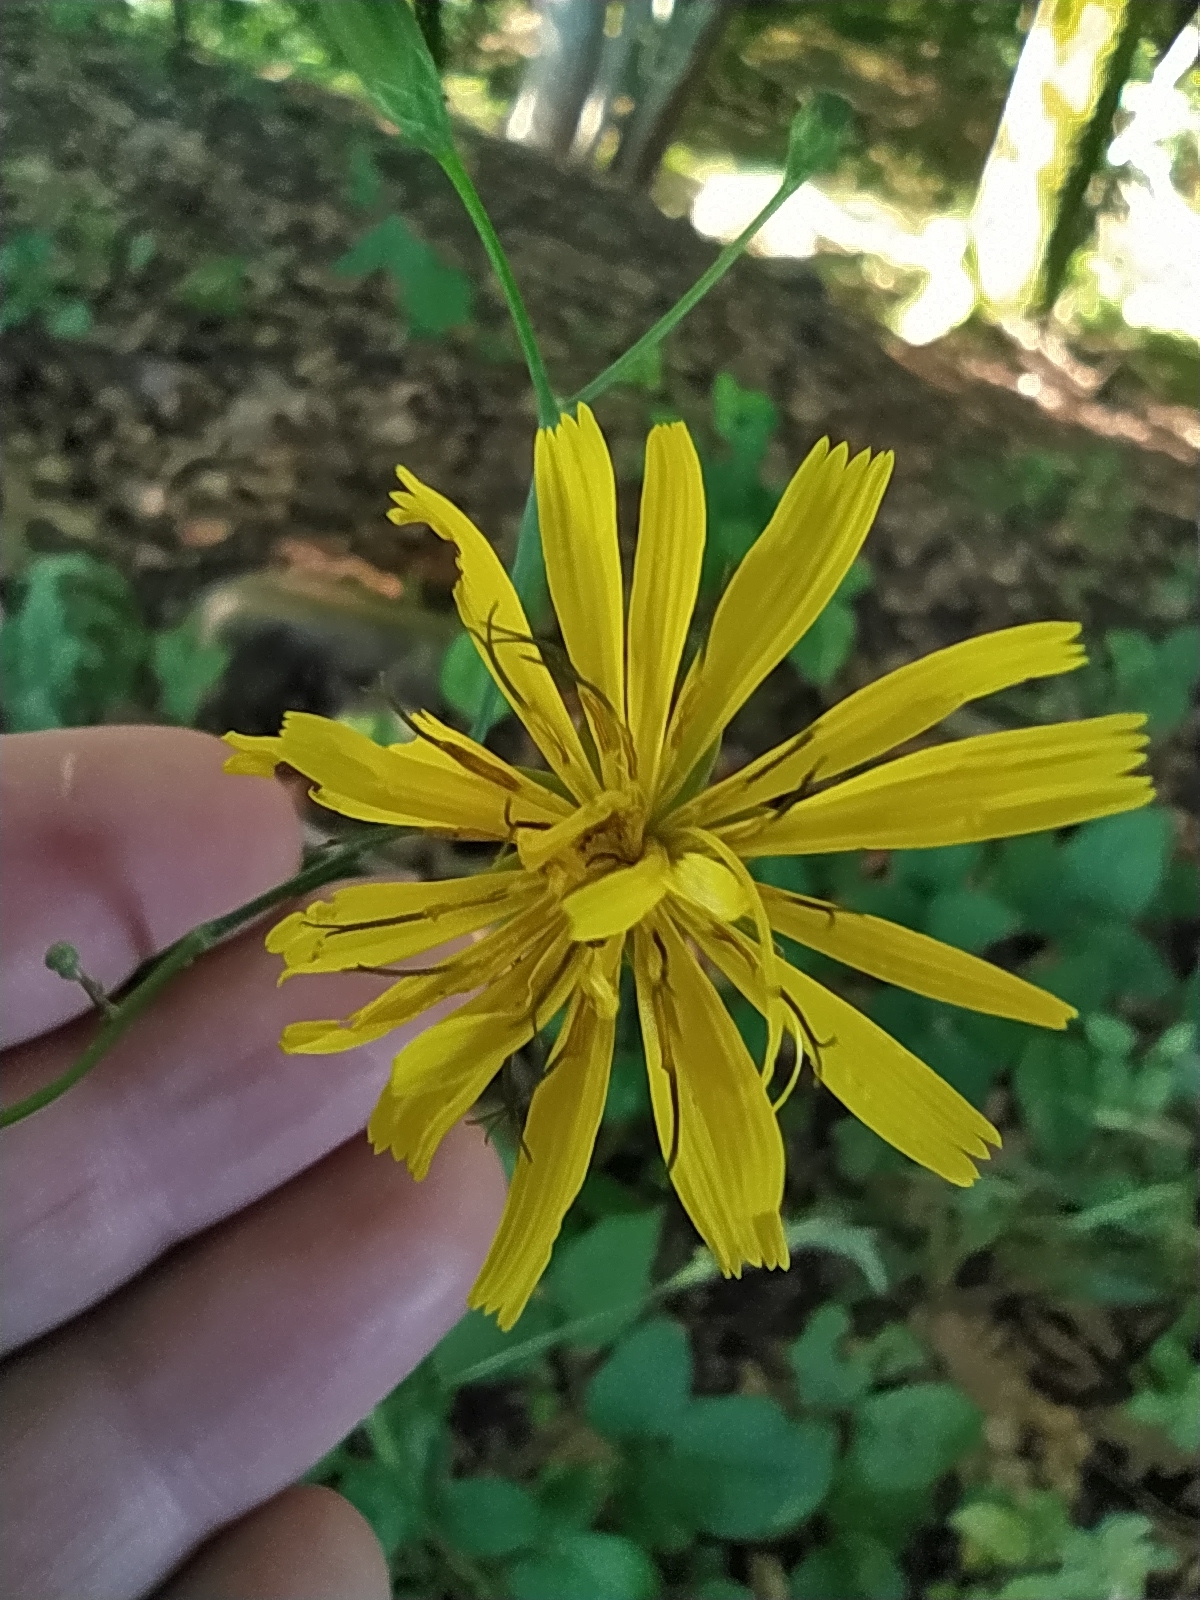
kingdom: Plantae
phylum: Tracheophyta
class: Magnoliopsida
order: Asterales
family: Asteraceae
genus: Lapsana
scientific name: Lapsana communis
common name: Nipplewort
